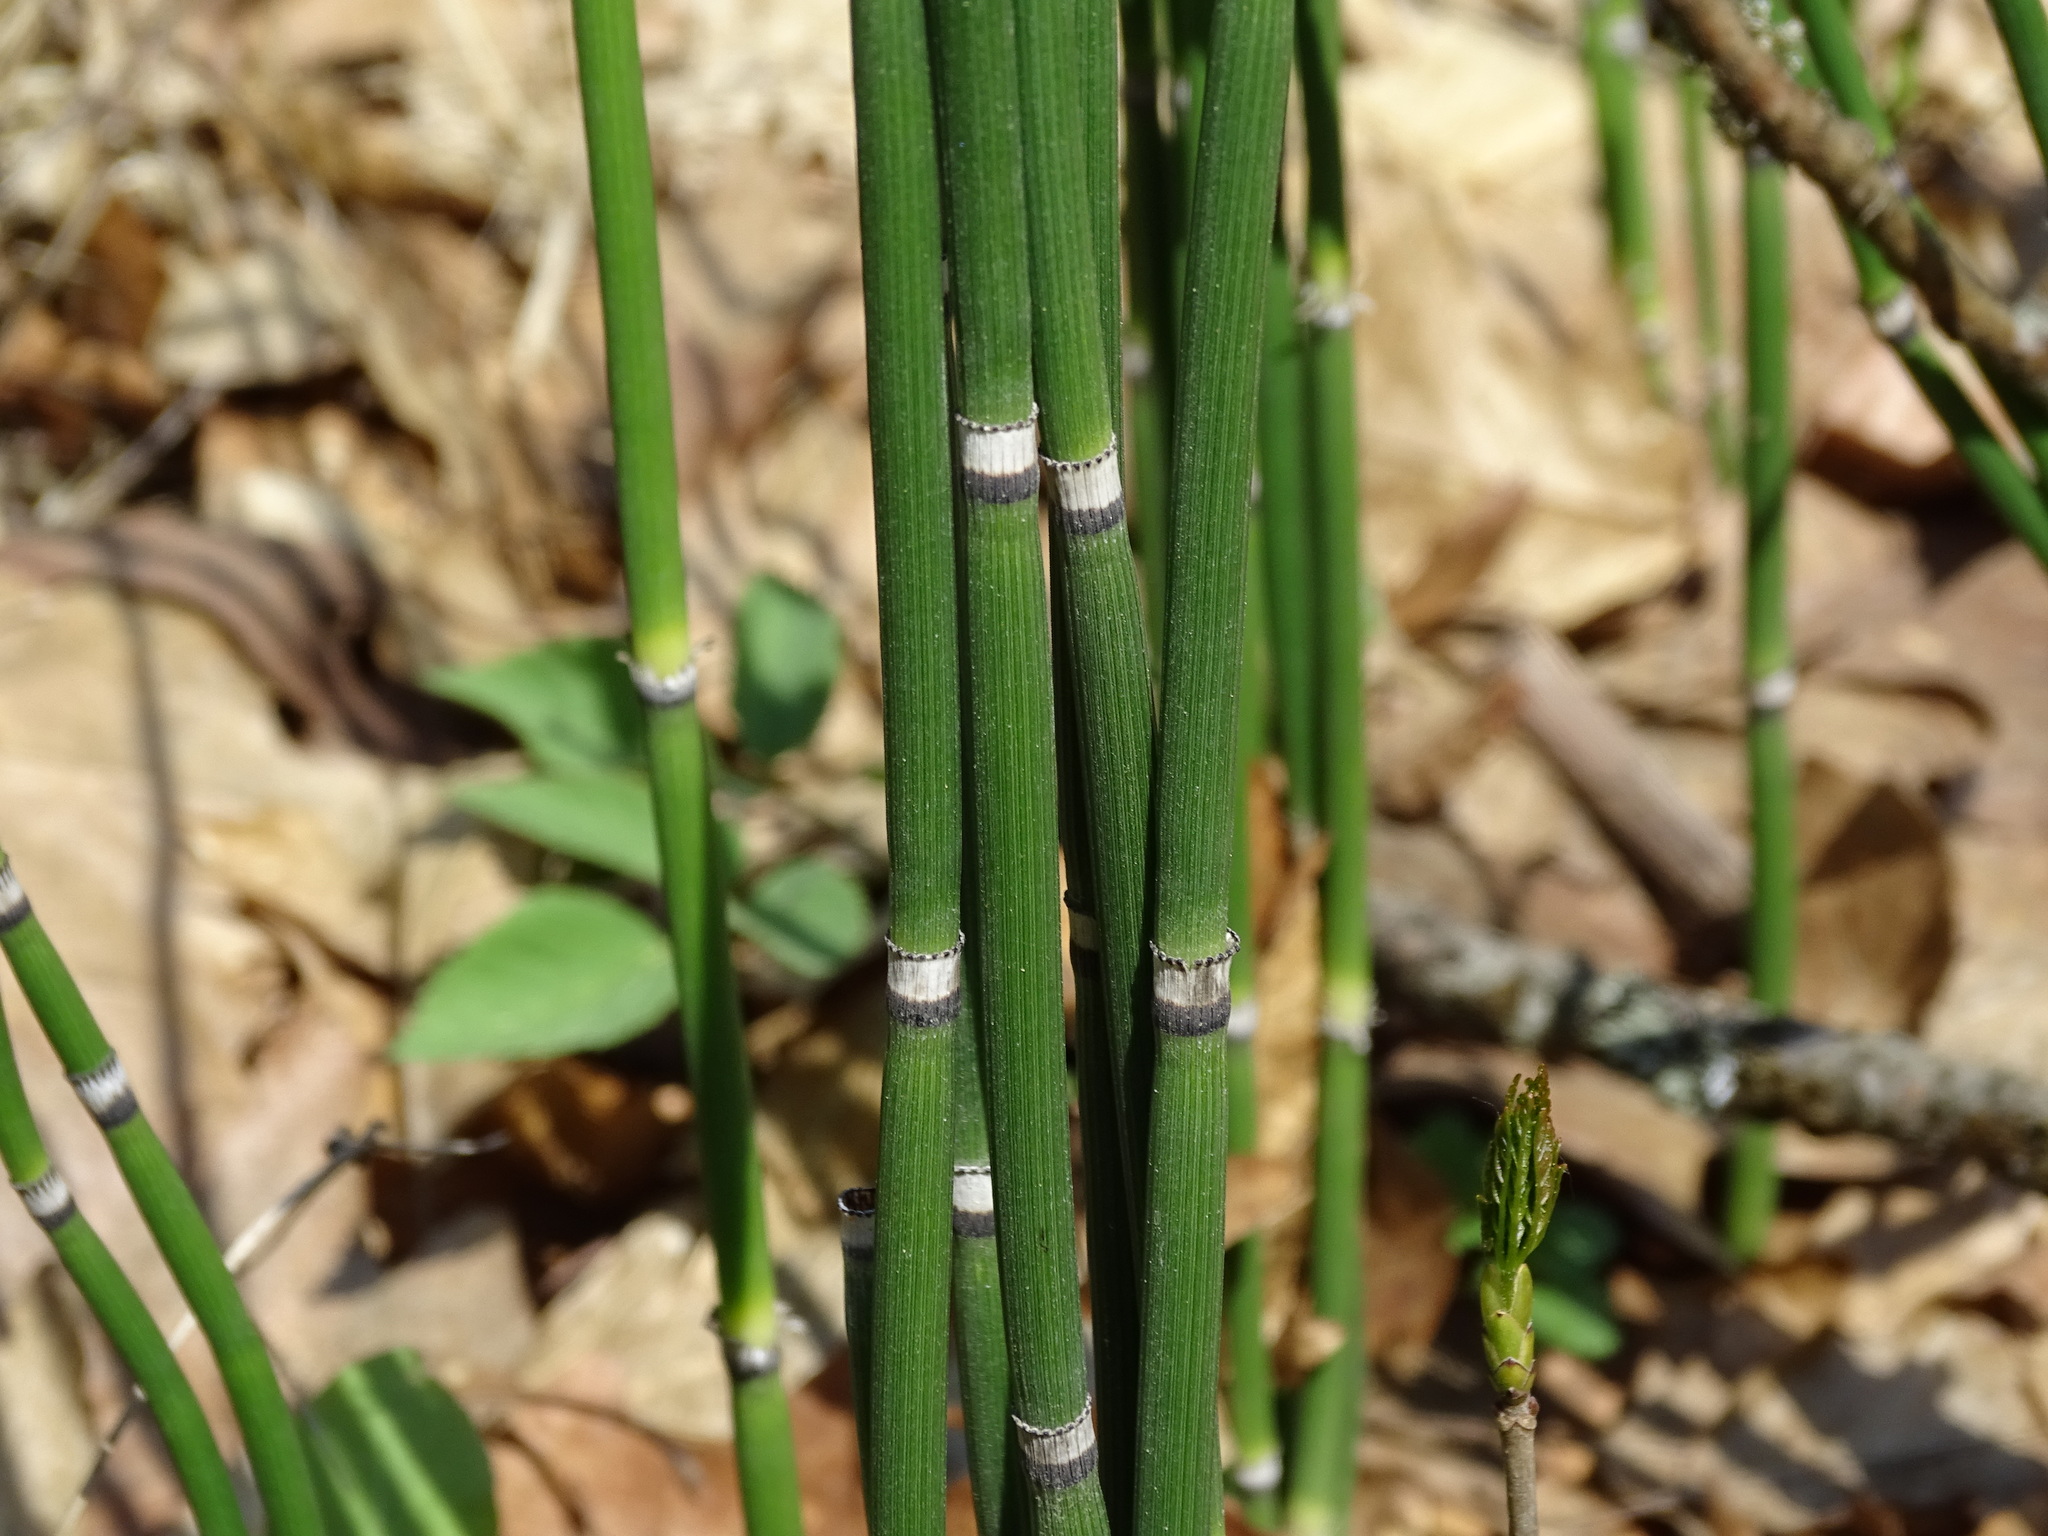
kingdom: Plantae
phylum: Tracheophyta
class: Polypodiopsida
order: Equisetales
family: Equisetaceae
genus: Equisetum
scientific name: Equisetum hyemale
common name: Rough horsetail
